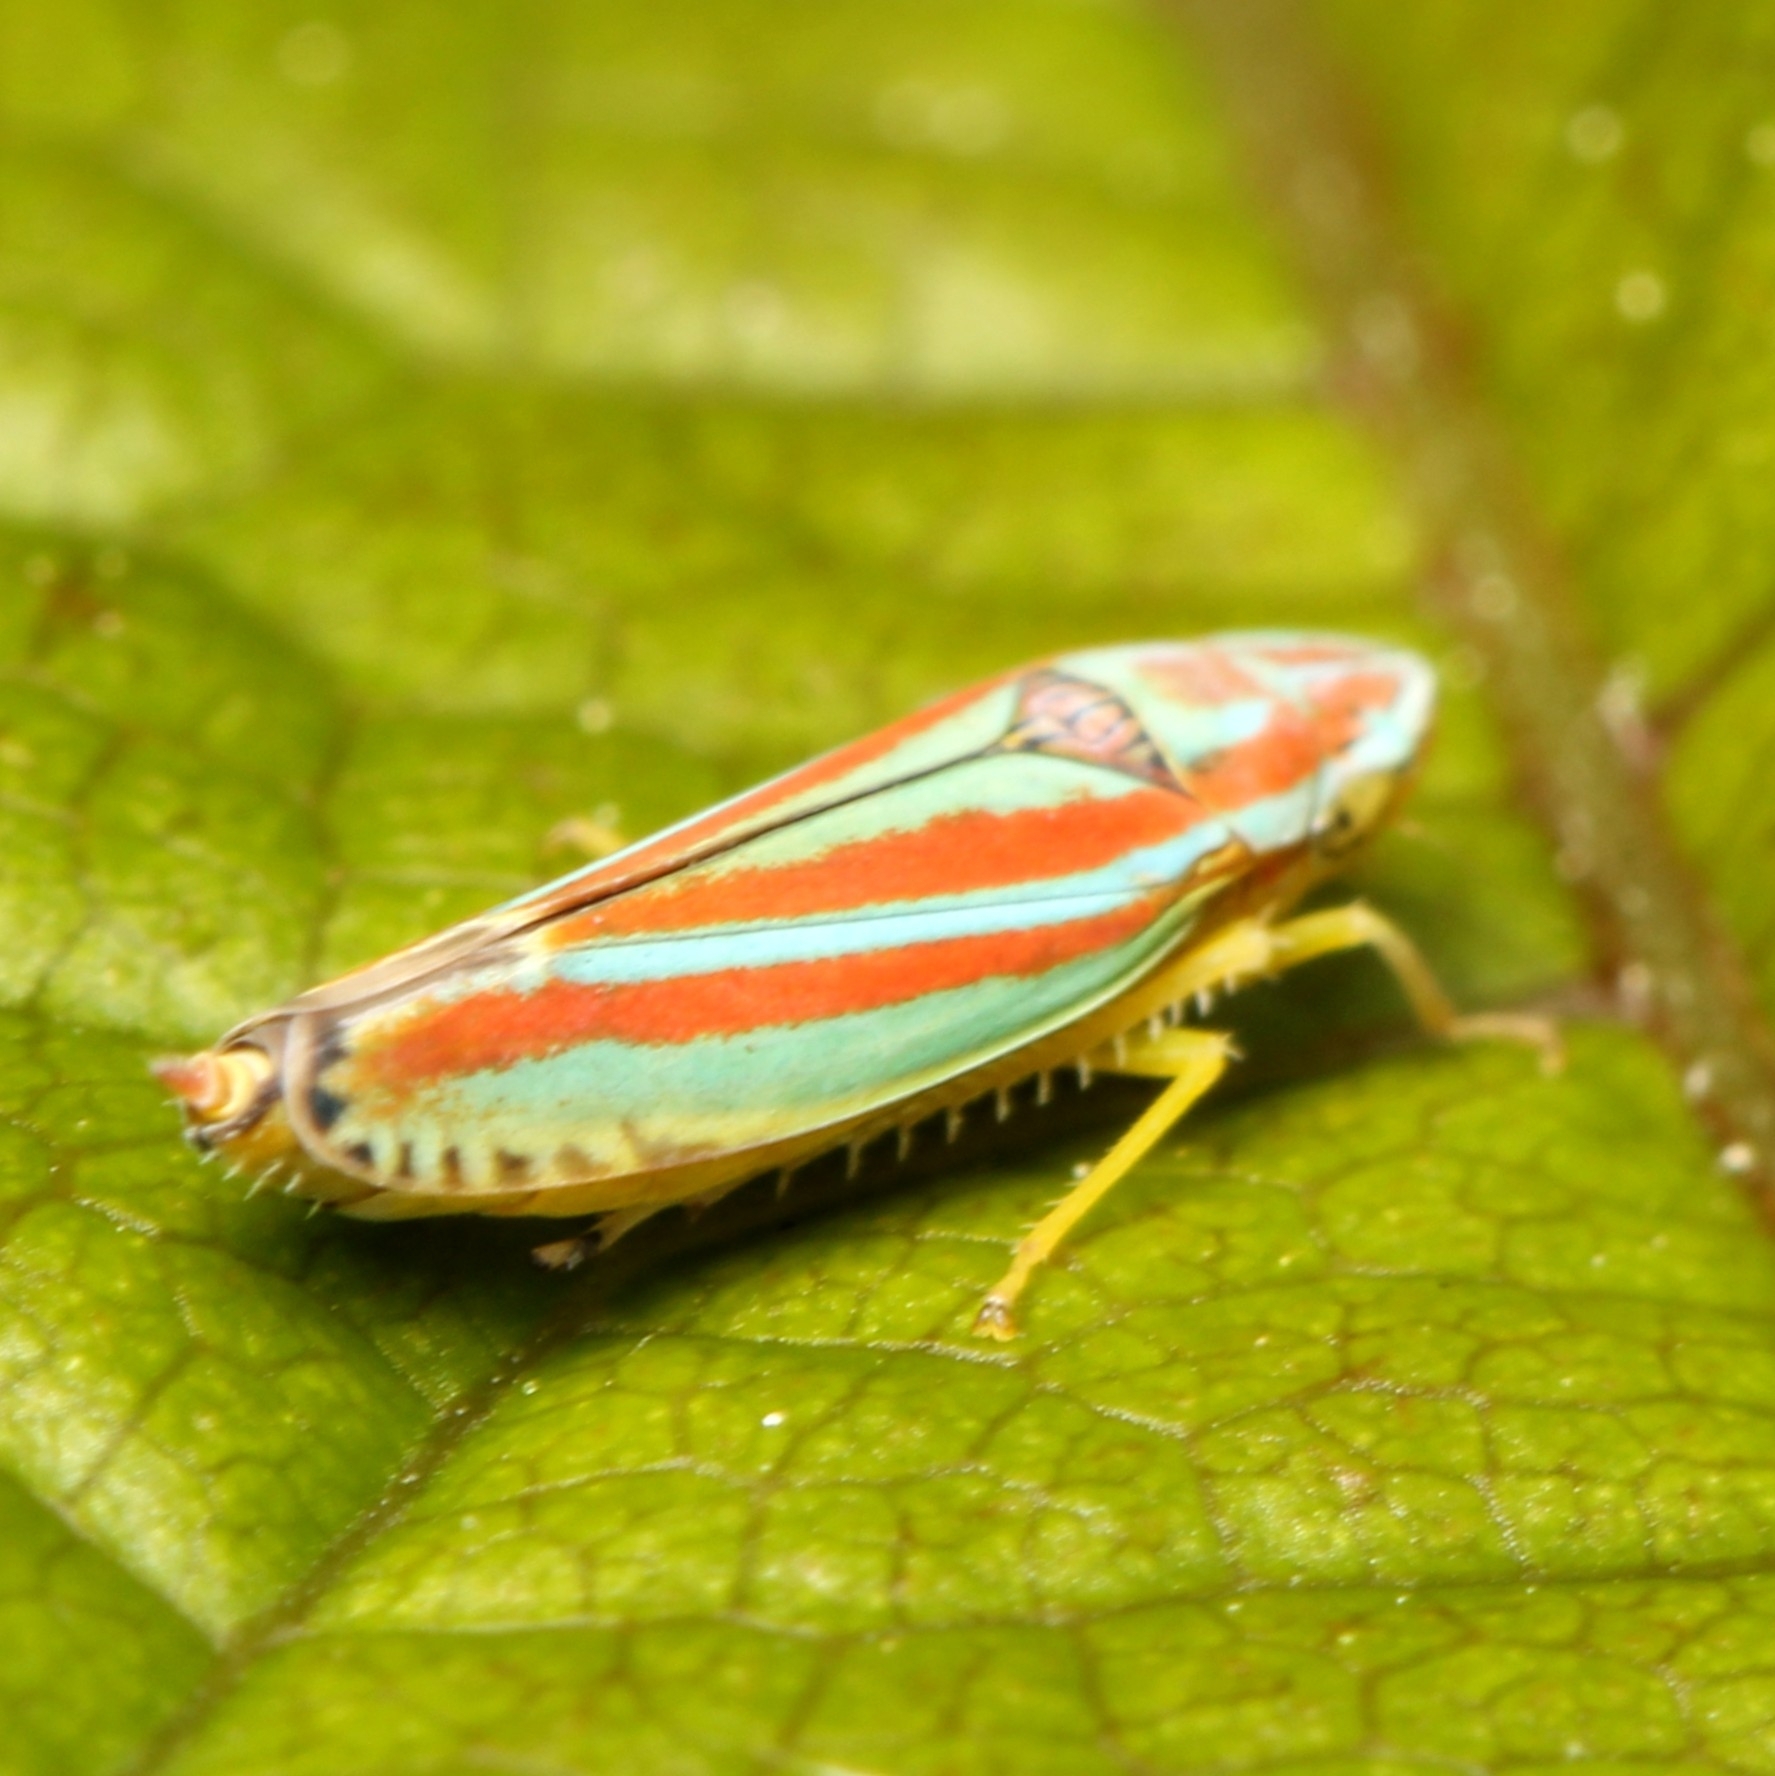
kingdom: Animalia
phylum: Arthropoda
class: Insecta
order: Hemiptera
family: Cicadellidae
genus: Graphocephala
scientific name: Graphocephala versuta
